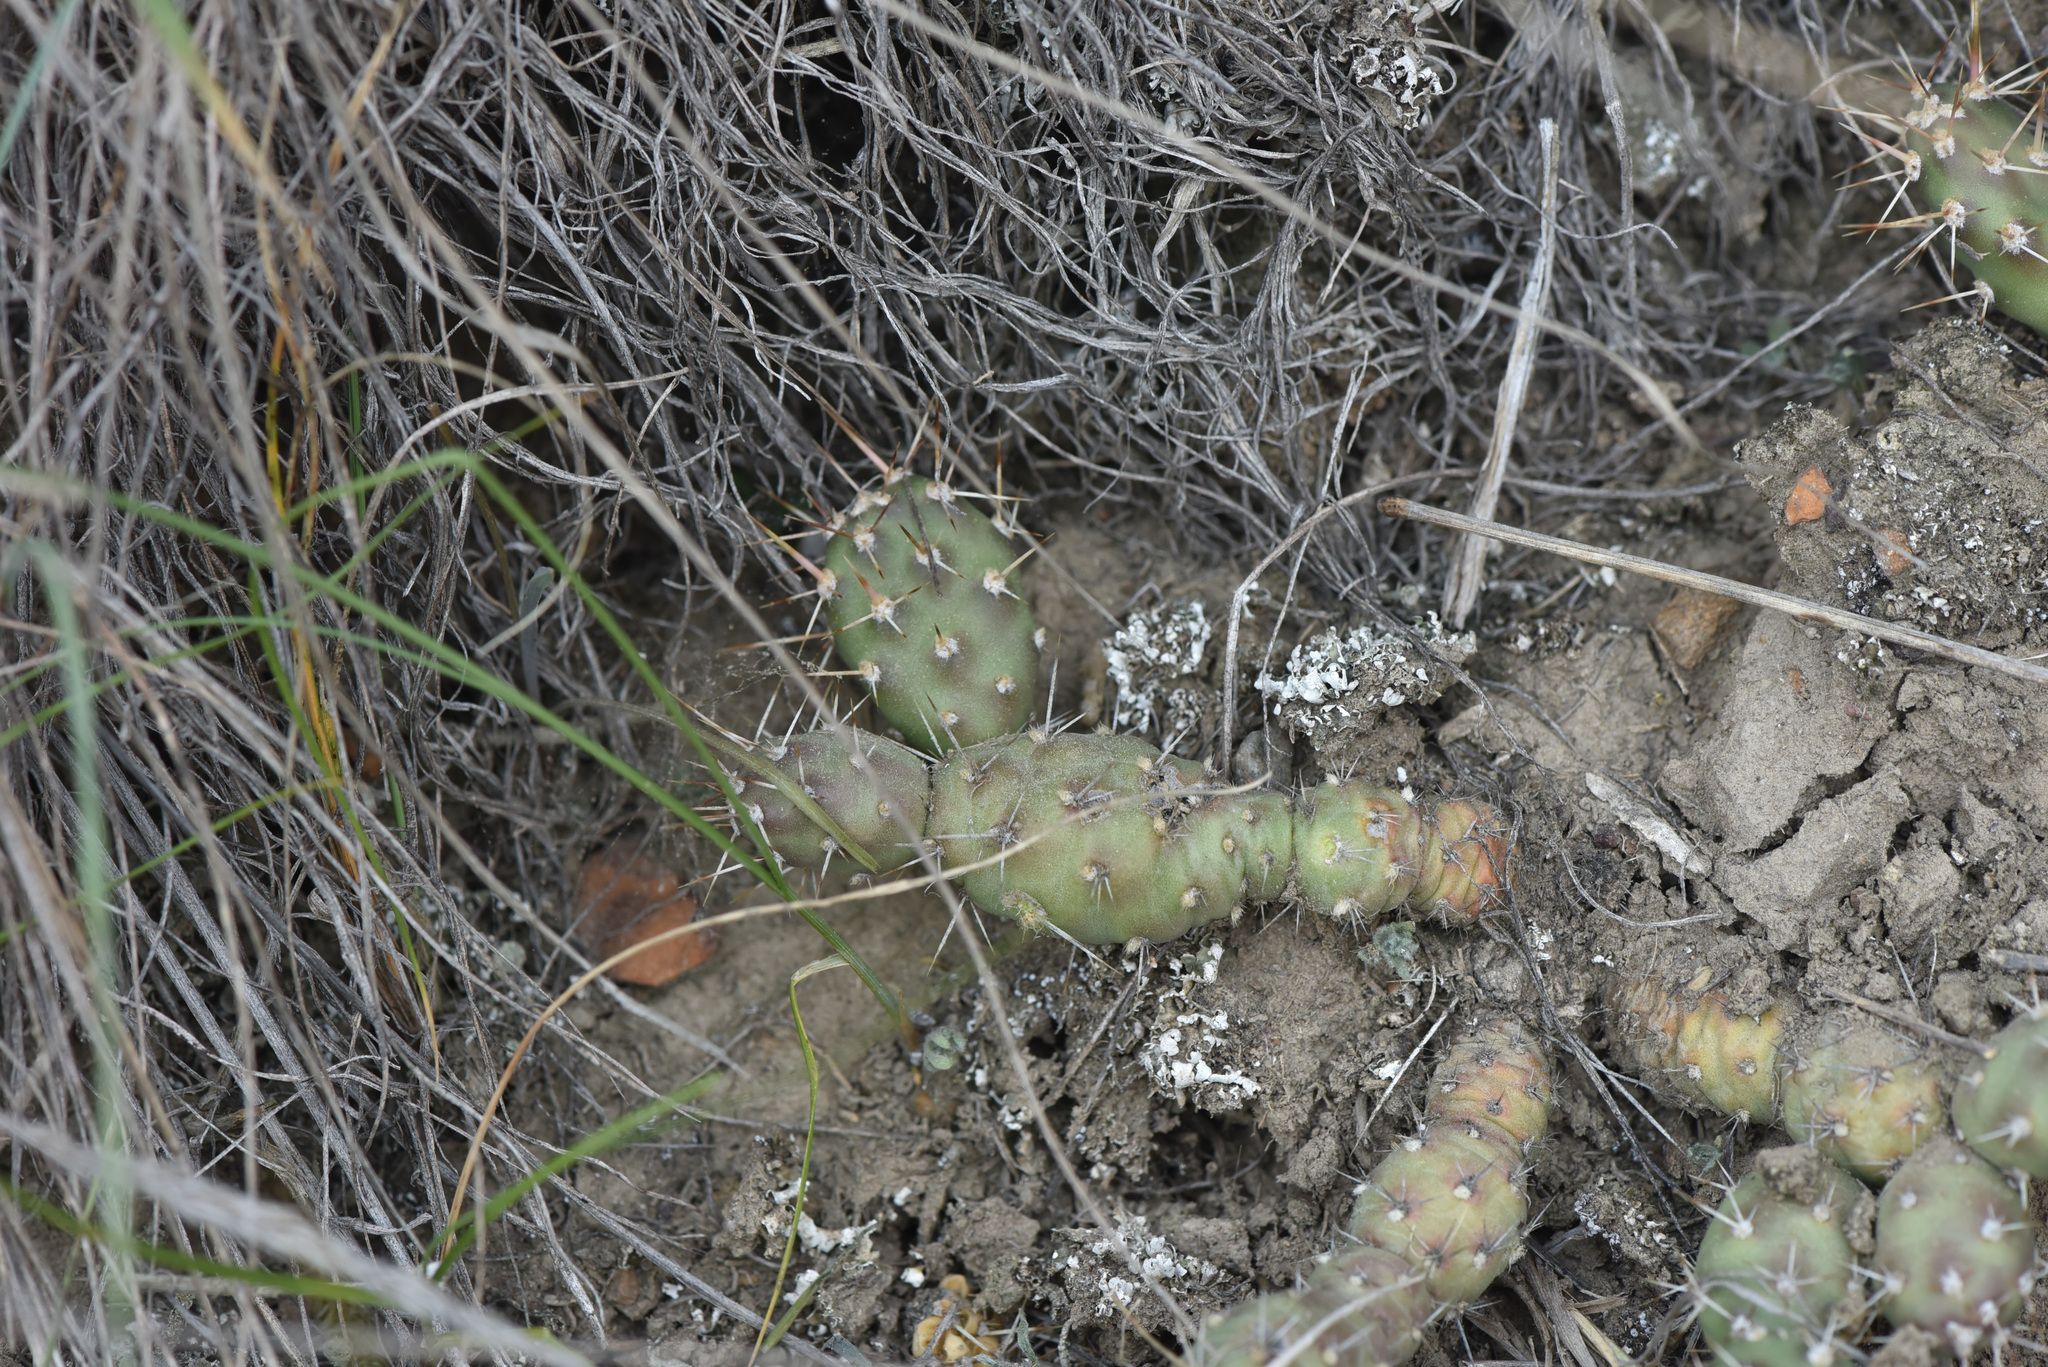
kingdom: Plantae
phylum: Tracheophyta
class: Magnoliopsida
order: Caryophyllales
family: Cactaceae
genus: Opuntia
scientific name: Opuntia fragilis
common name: Brittle cactus
